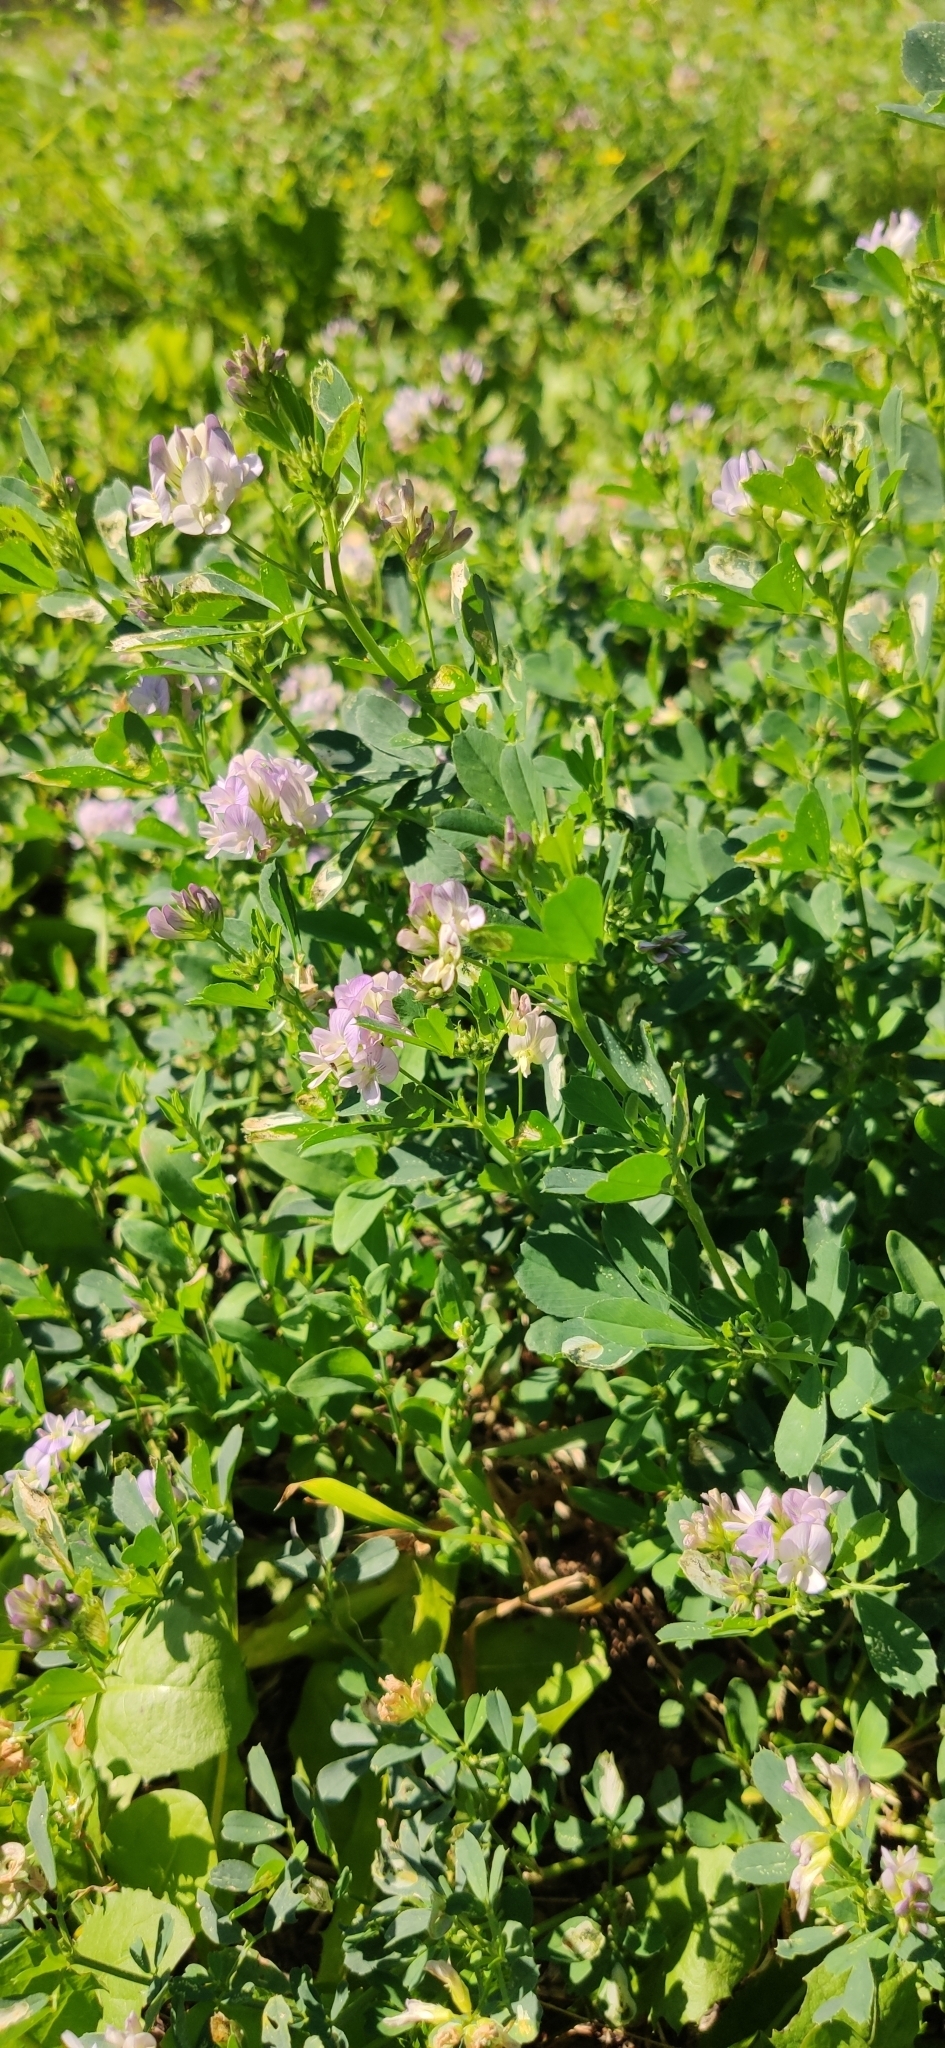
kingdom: Plantae
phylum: Tracheophyta
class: Magnoliopsida
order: Fabales
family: Fabaceae
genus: Medicago
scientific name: Medicago sativa
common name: Alfalfa
